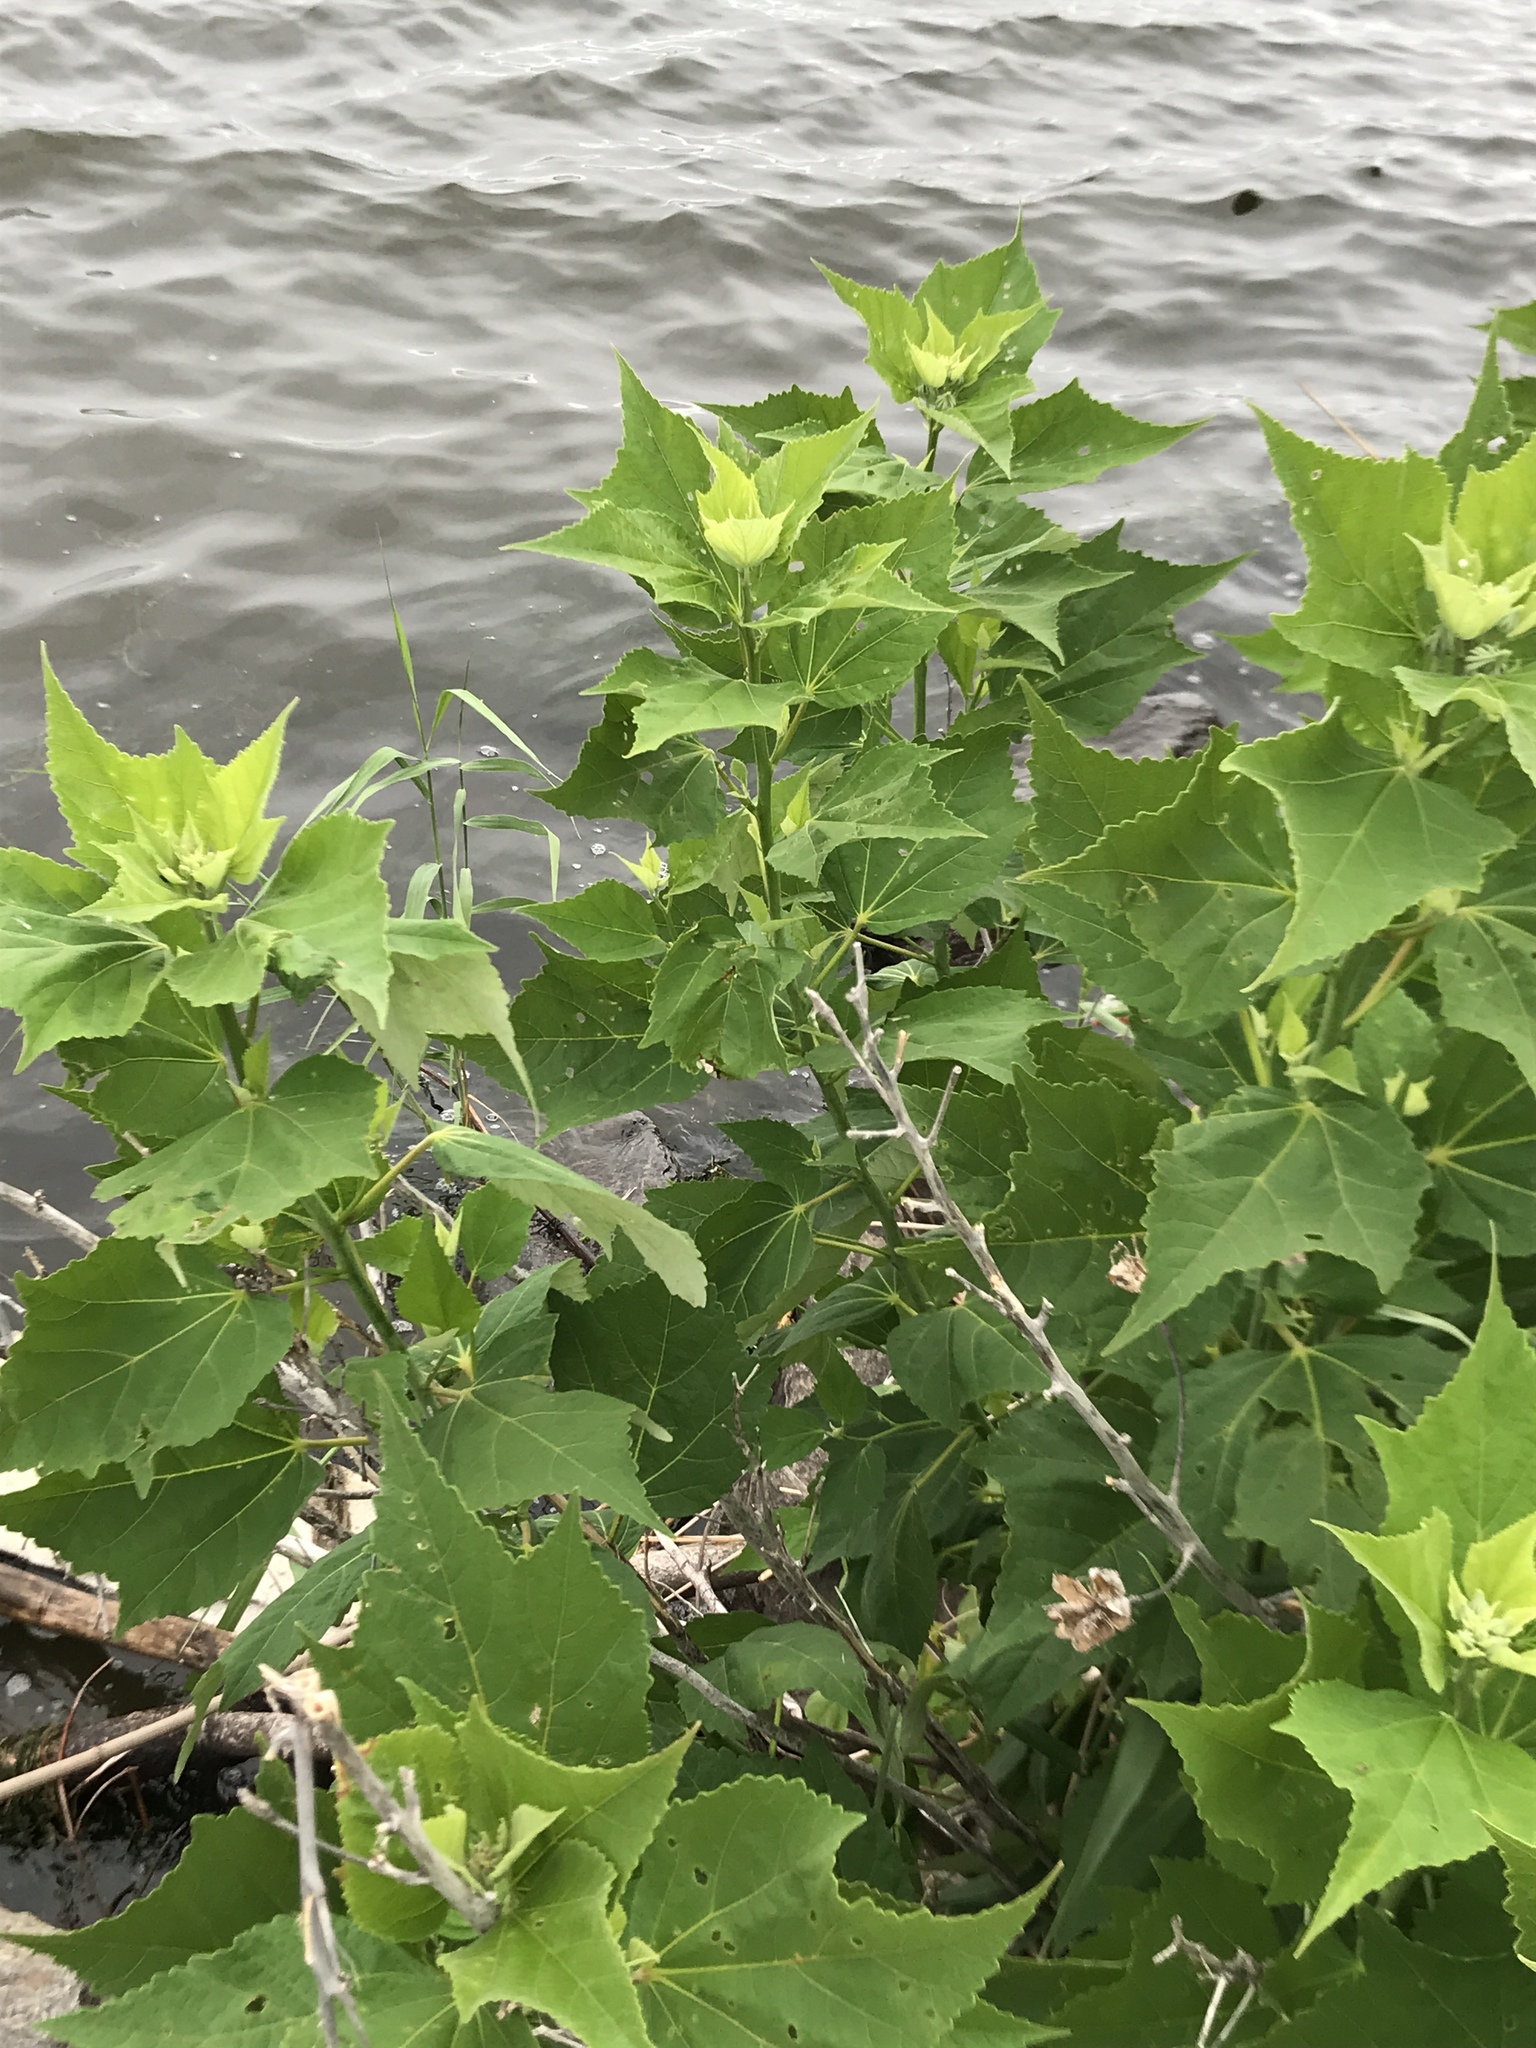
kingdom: Plantae
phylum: Tracheophyta
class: Magnoliopsida
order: Malvales
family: Malvaceae
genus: Hibiscus
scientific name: Hibiscus moscheutos
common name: Common rose-mallow
